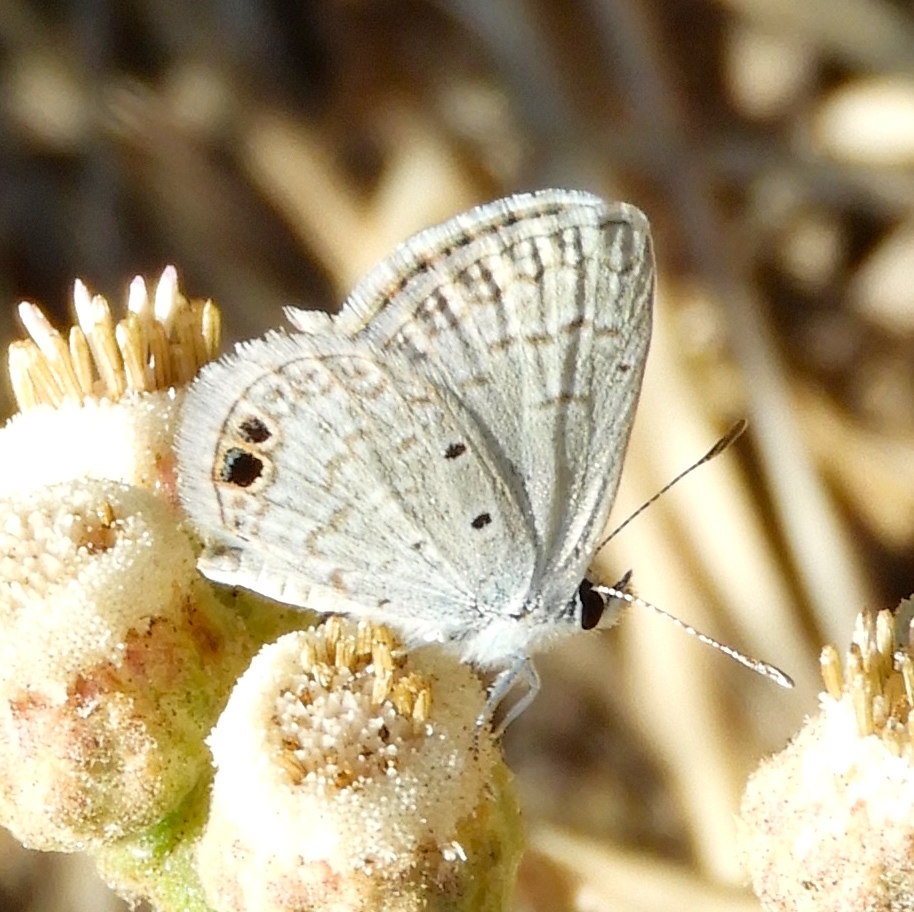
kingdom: Animalia
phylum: Arthropoda
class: Insecta
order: Lepidoptera
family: Lycaenidae
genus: Echinargus
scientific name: Echinargus isola
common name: Reakirt's blue
